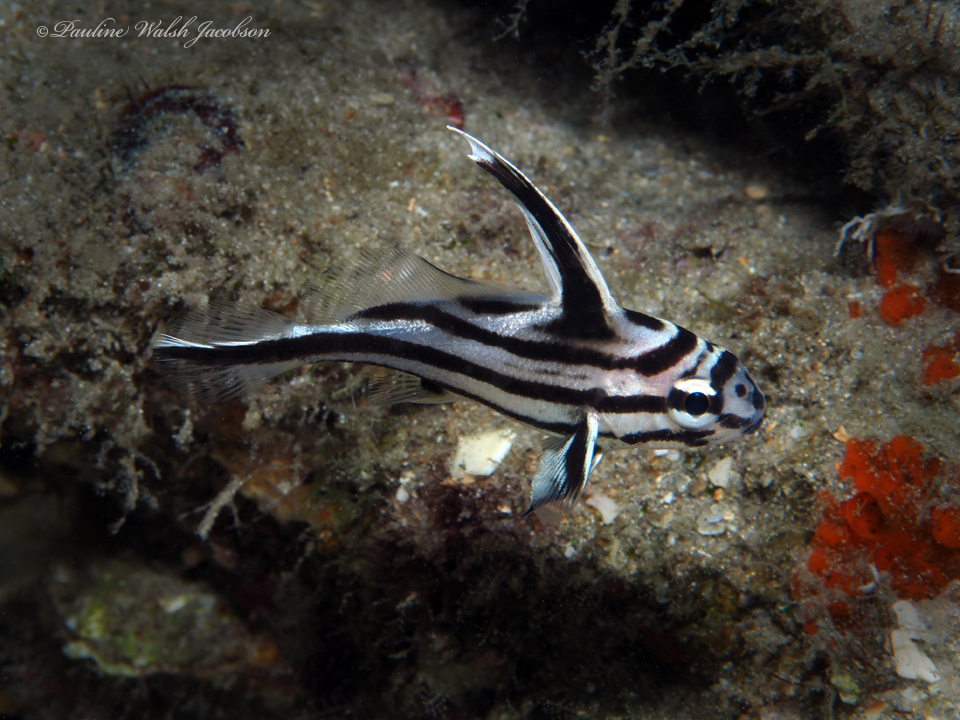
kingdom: Animalia
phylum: Chordata
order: Perciformes
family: Sciaenidae
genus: Pareques
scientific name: Pareques acuminatus
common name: High-hat
